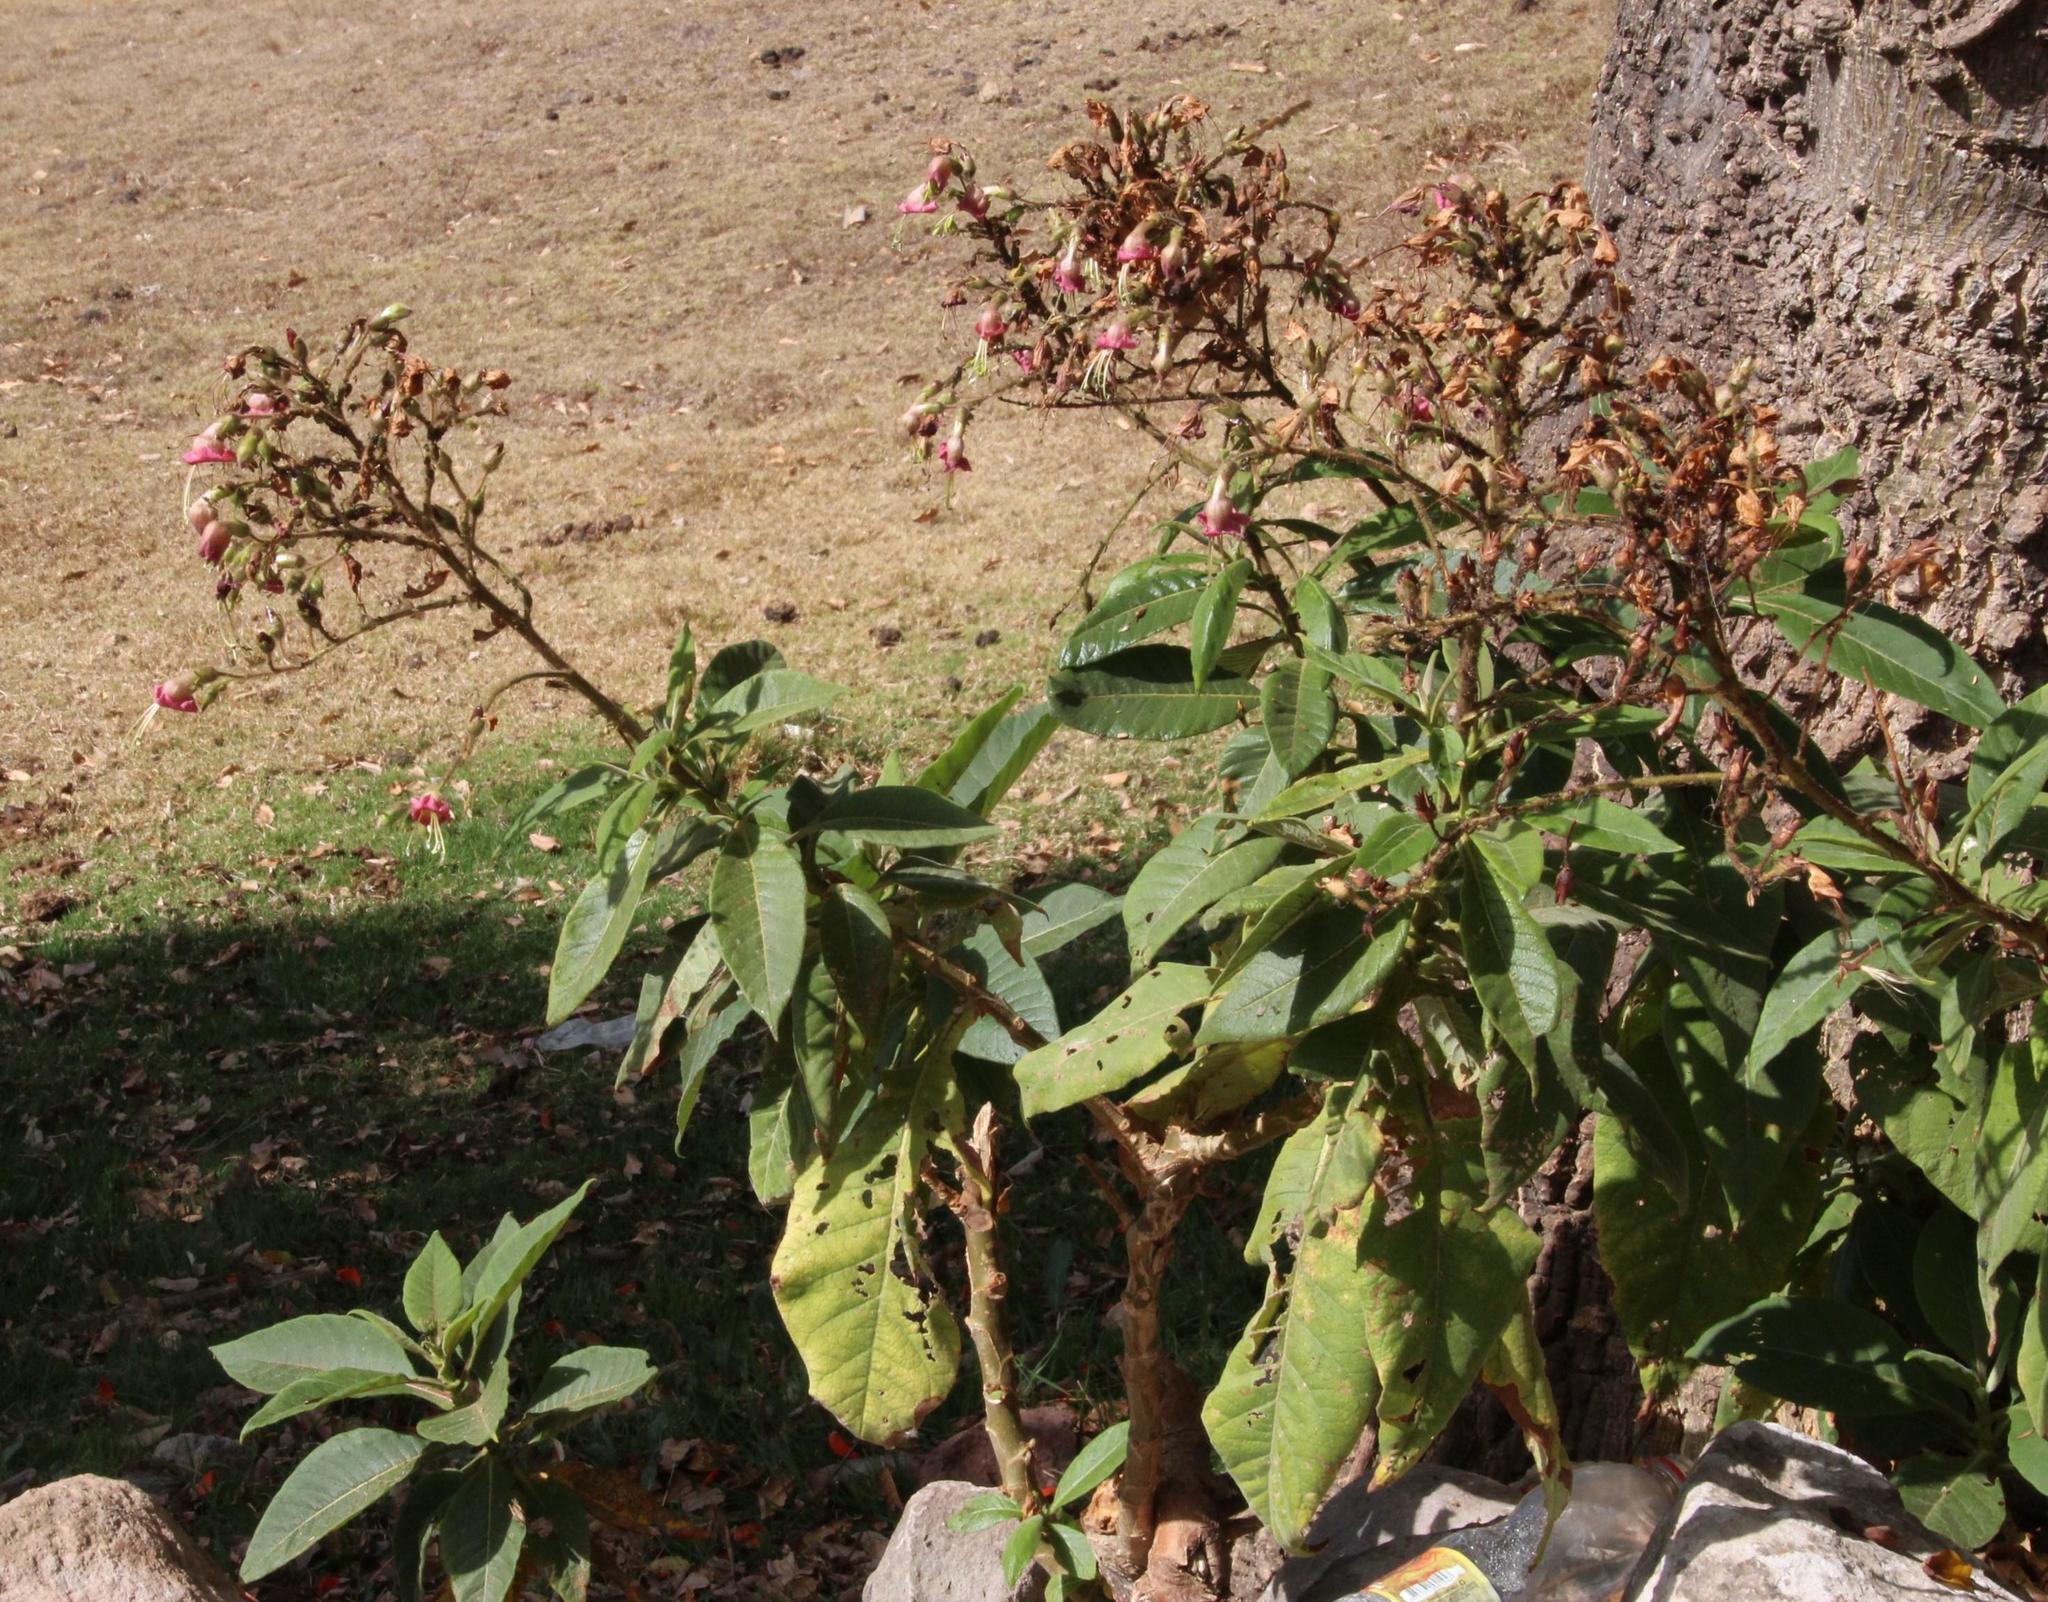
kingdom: Plantae
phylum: Tracheophyta
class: Magnoliopsida
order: Solanales
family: Solanaceae
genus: Nicotiana
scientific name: Nicotiana tomentosa
